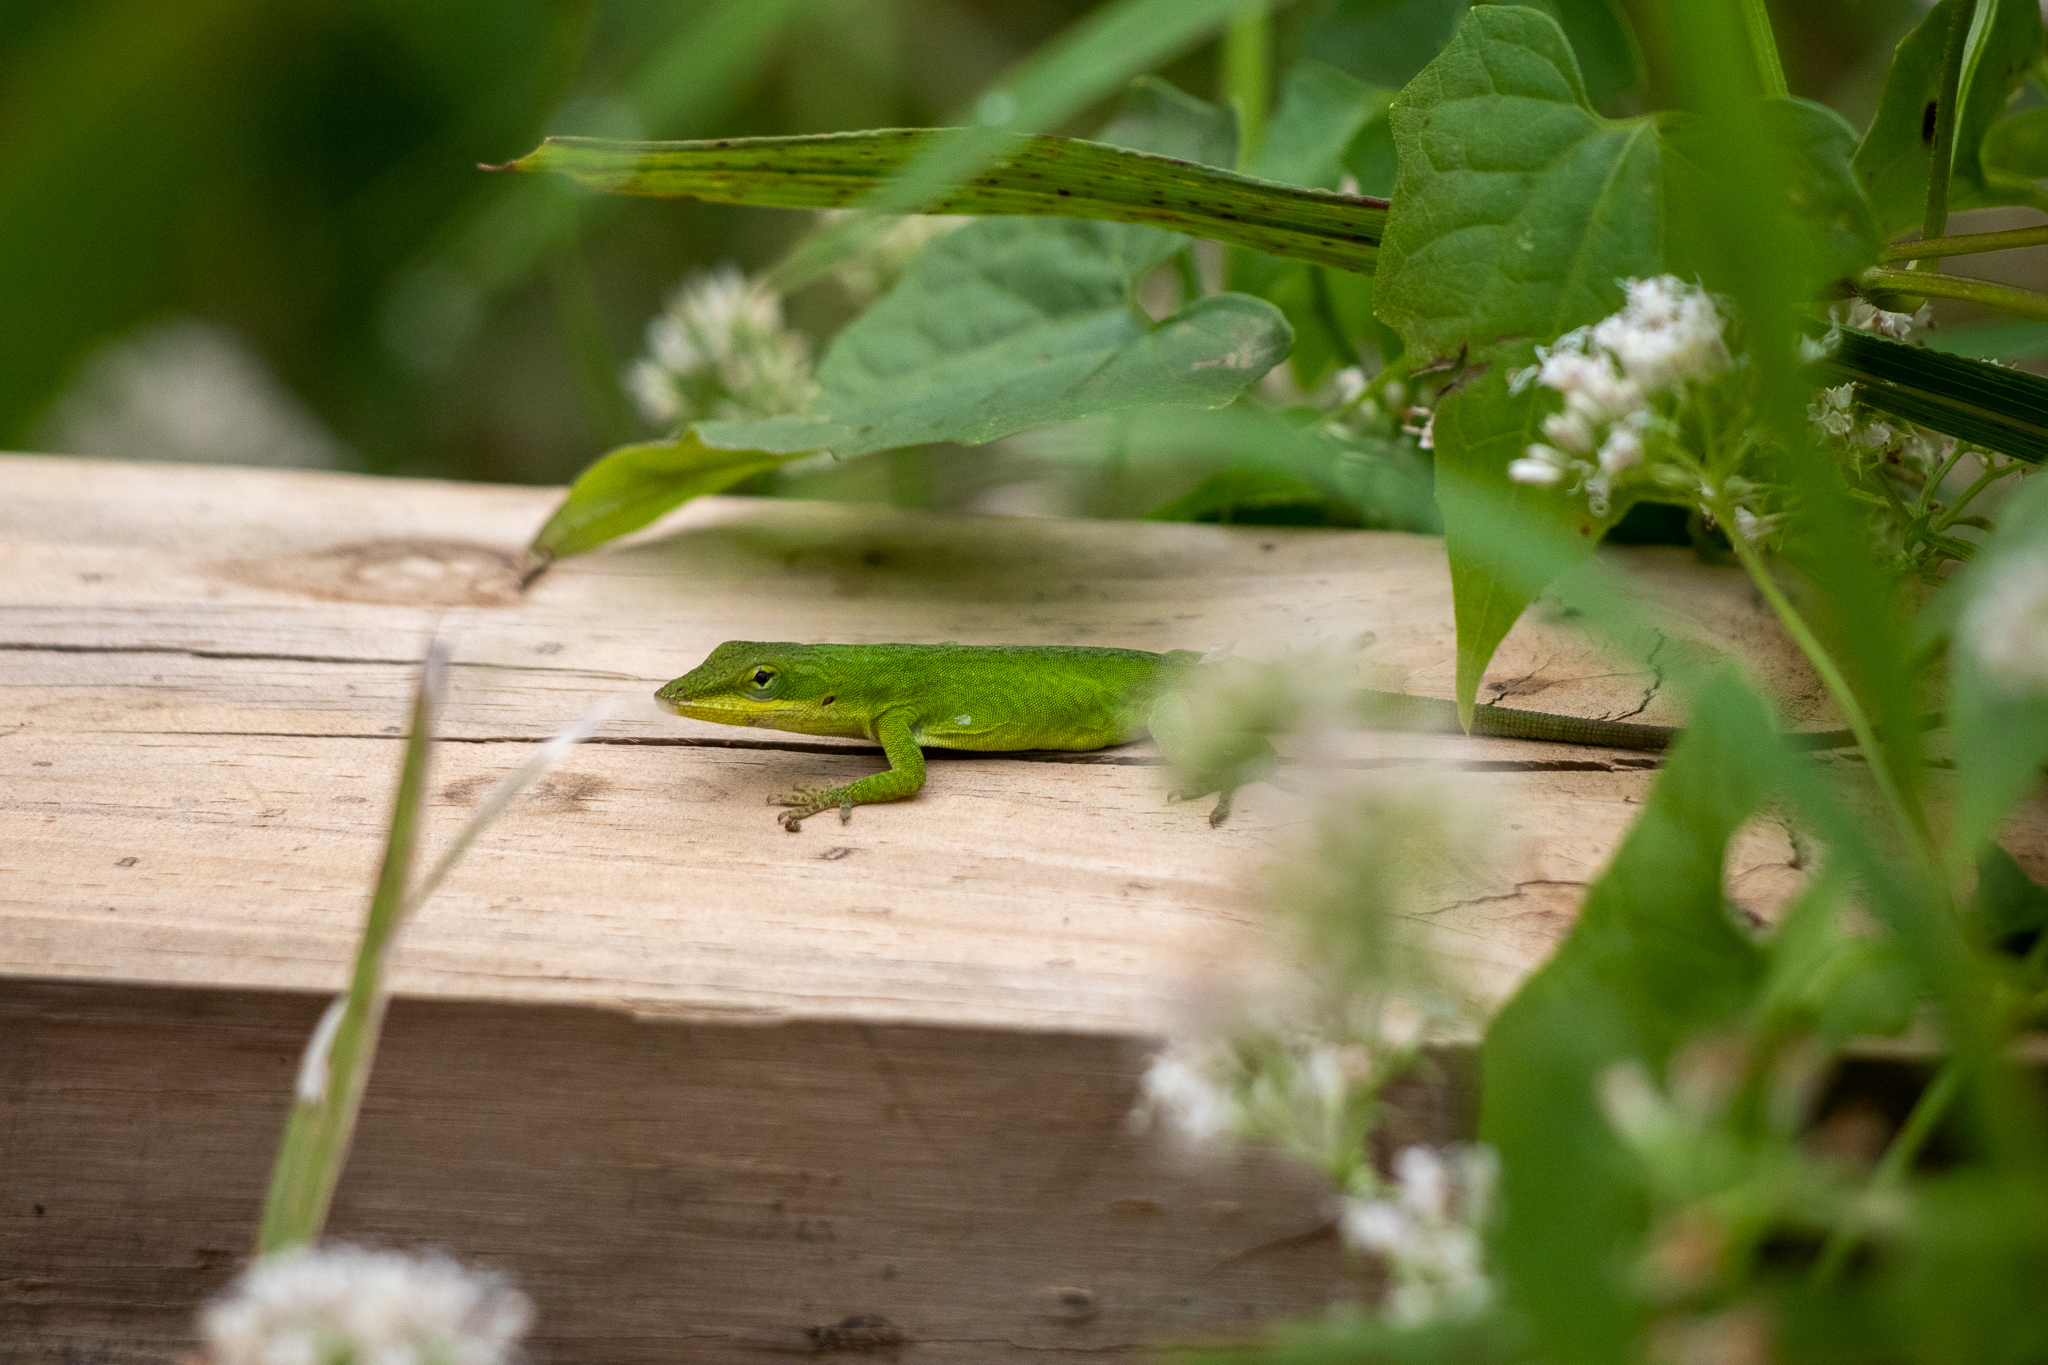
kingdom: Animalia
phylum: Chordata
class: Squamata
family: Dactyloidae
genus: Anolis
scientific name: Anolis carolinensis
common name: Green anole
